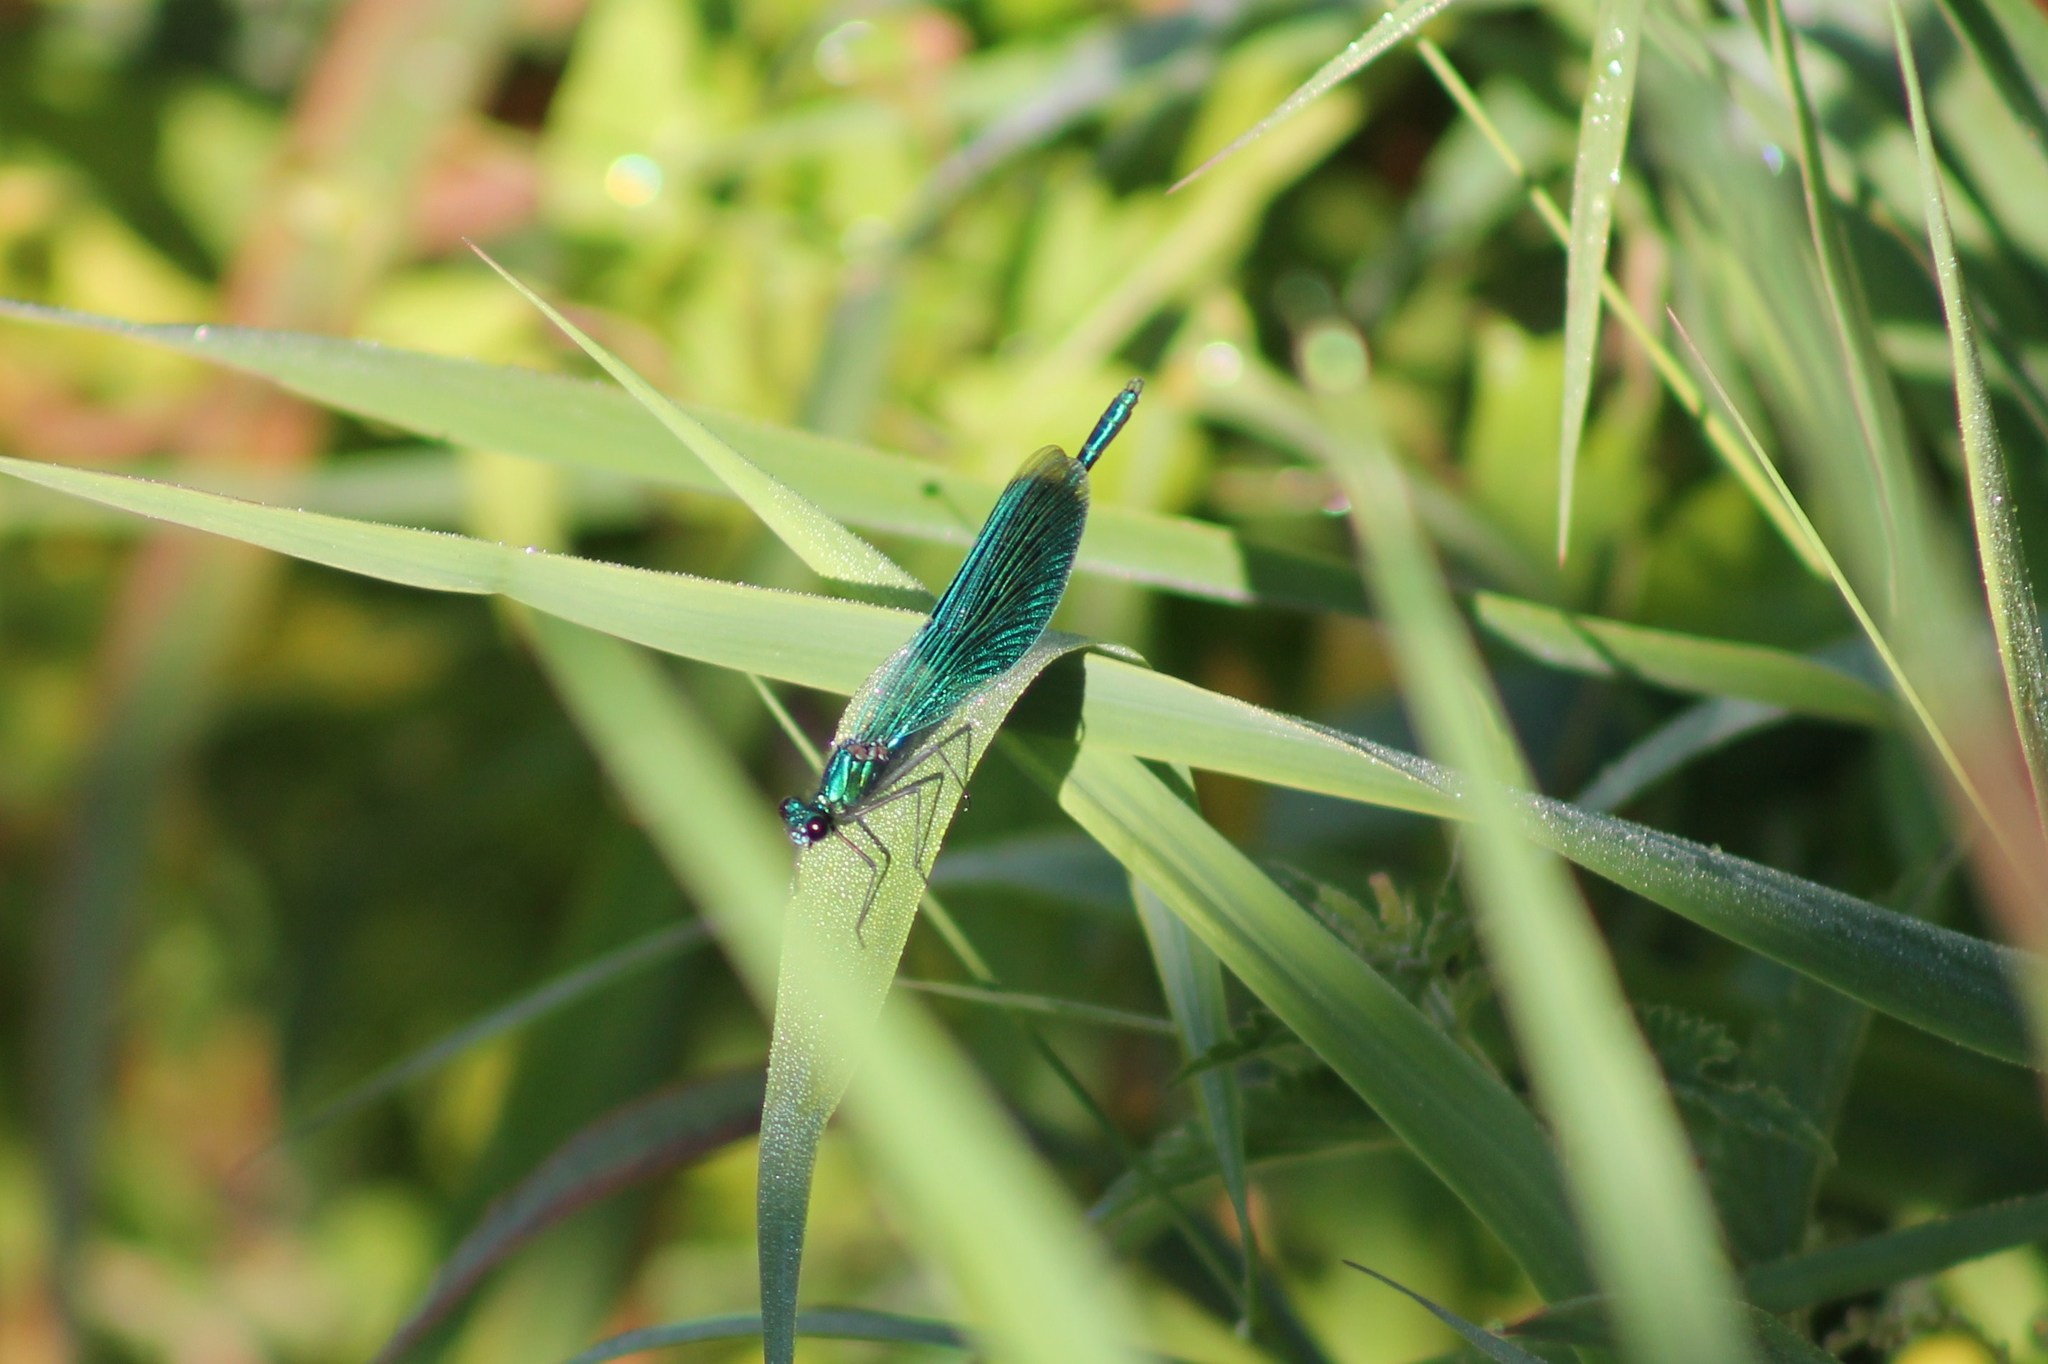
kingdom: Animalia
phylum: Arthropoda
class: Insecta
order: Odonata
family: Calopterygidae
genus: Calopteryx
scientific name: Calopteryx splendens
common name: Banded demoiselle
